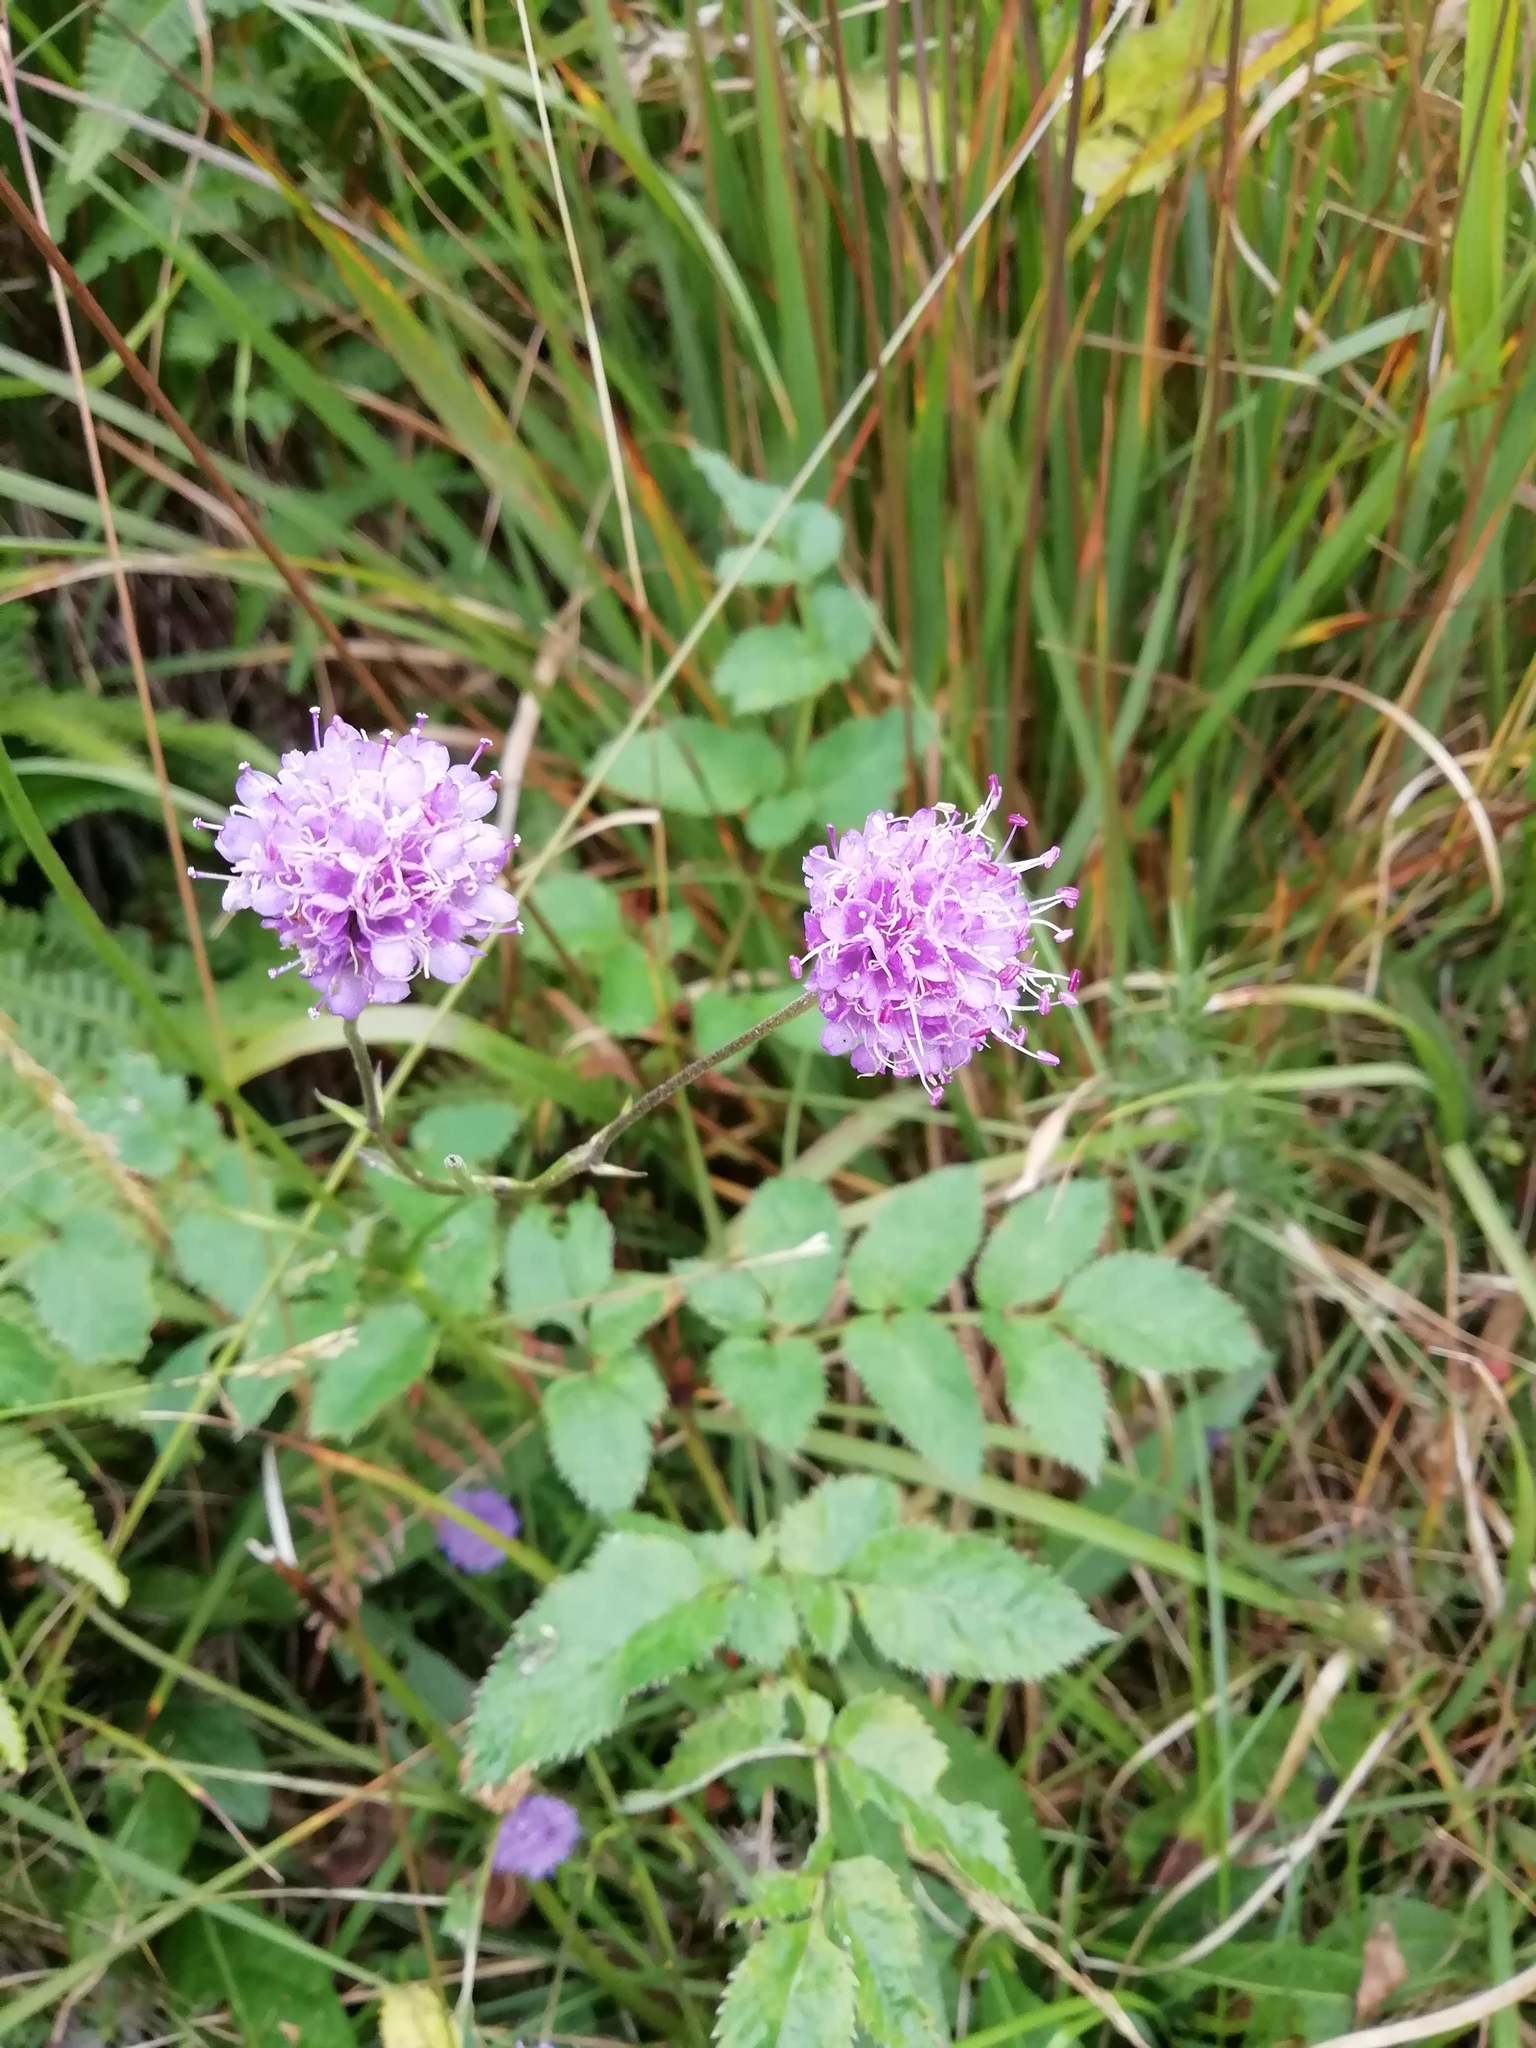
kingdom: Plantae
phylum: Tracheophyta
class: Magnoliopsida
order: Dipsacales
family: Caprifoliaceae
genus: Succisa
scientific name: Succisa pratensis
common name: Devil's-bit
